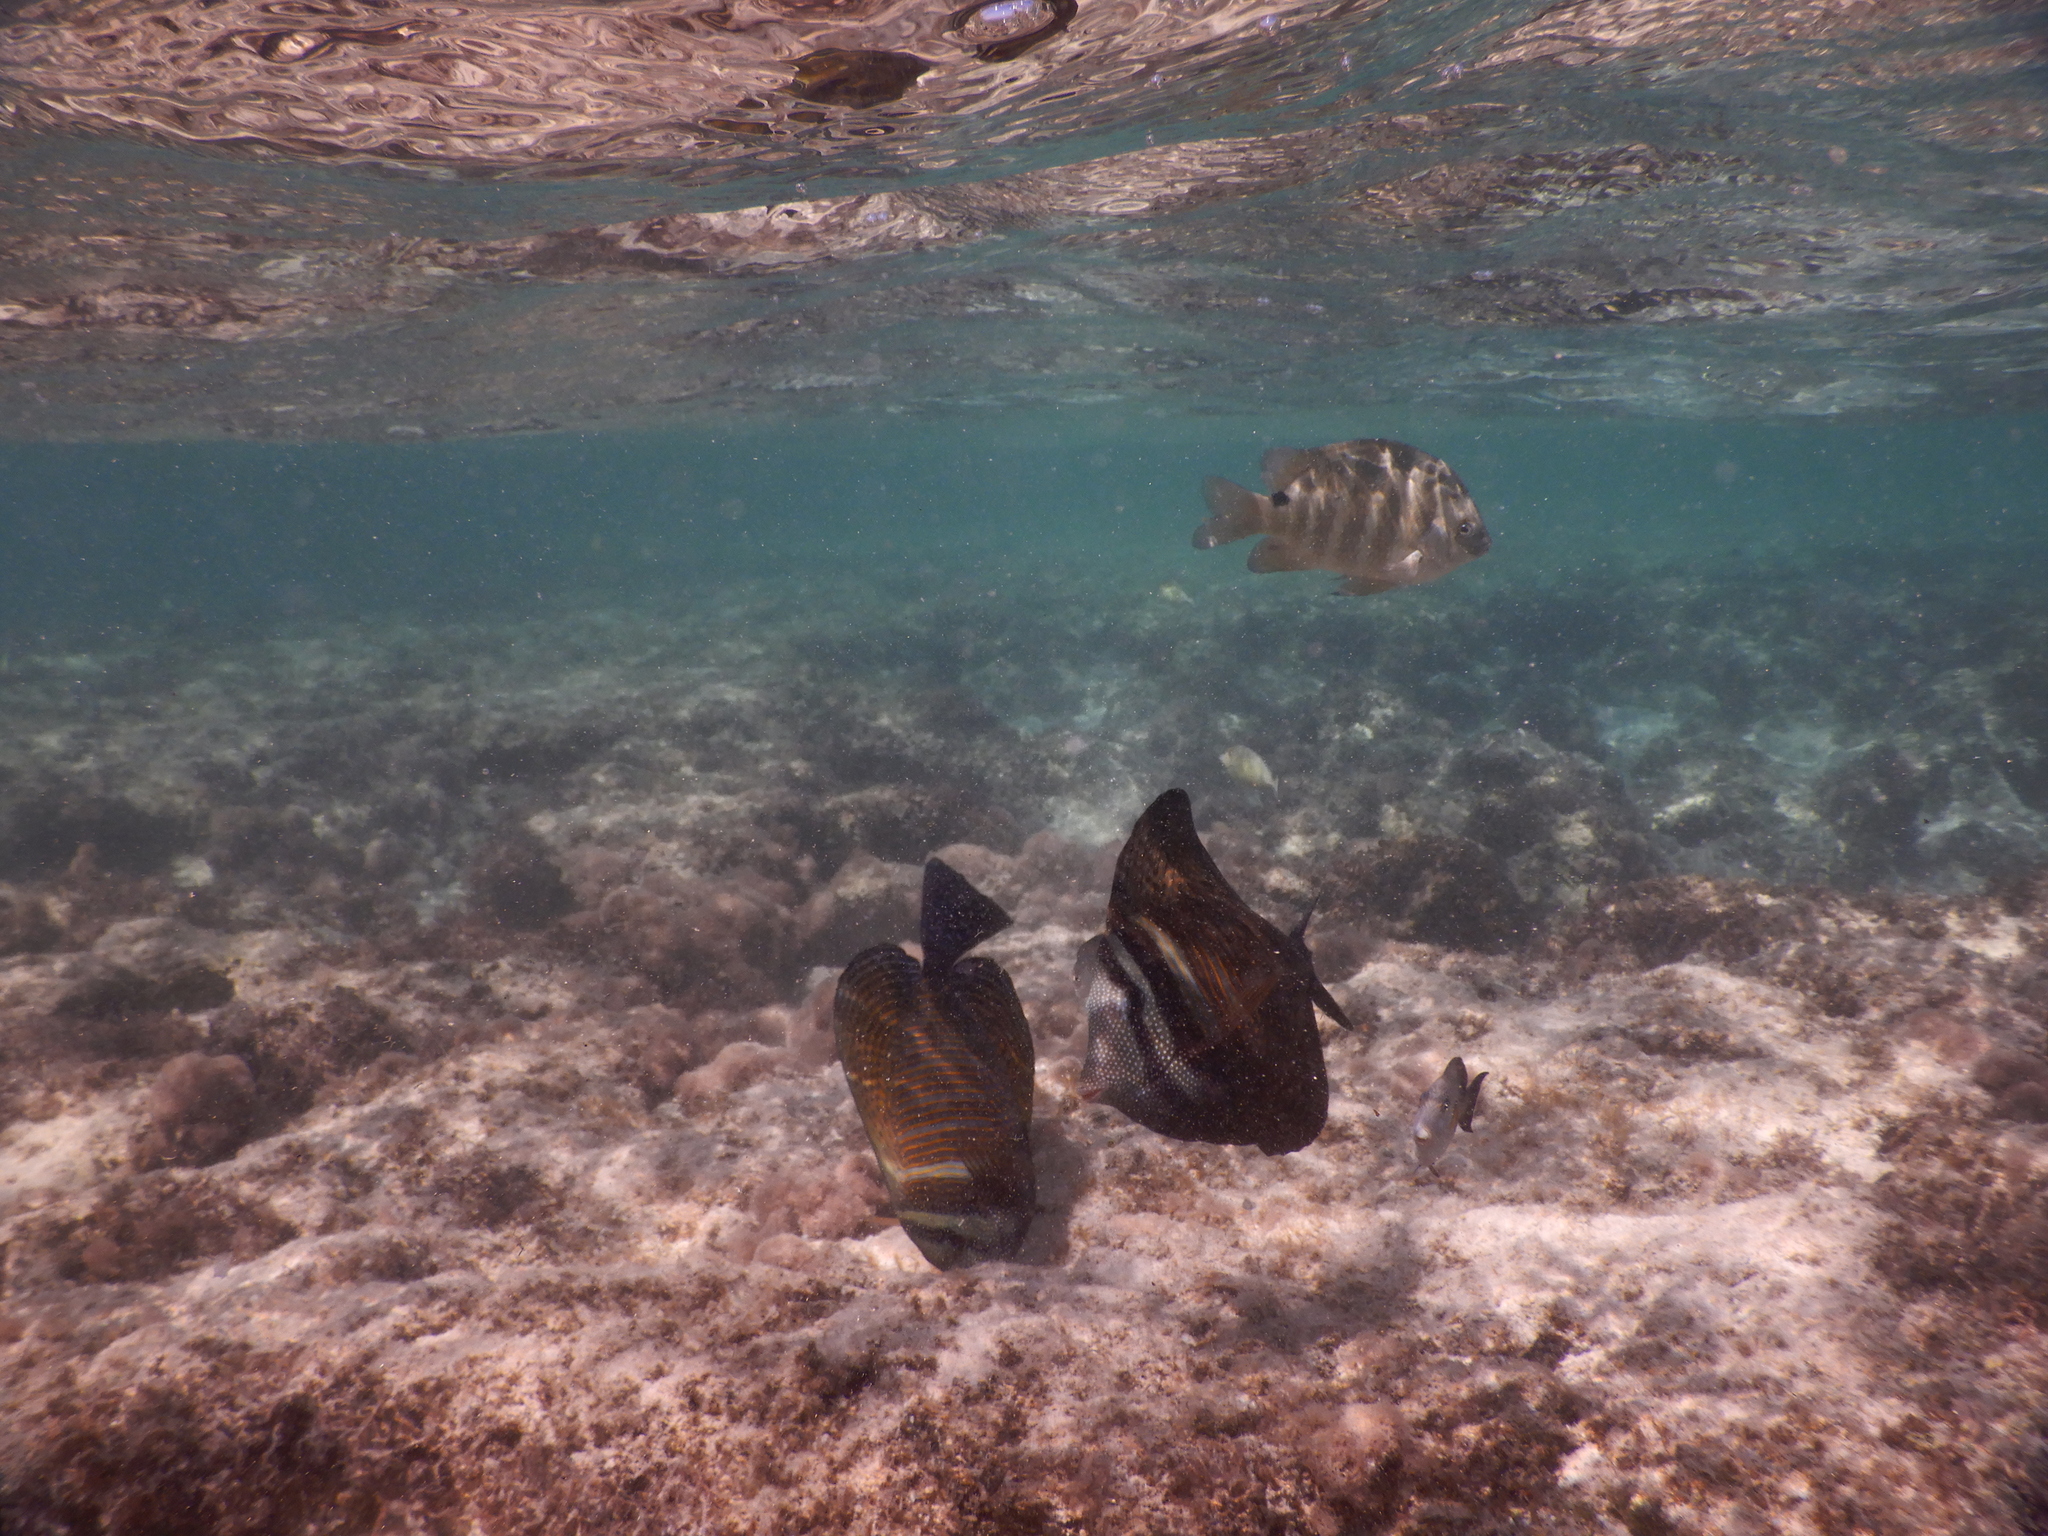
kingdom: Animalia
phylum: Chordata
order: Perciformes
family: Acanthuridae
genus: Zebrasoma
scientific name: Zebrasoma desjardinii
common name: Desjardin's sailfin tang
